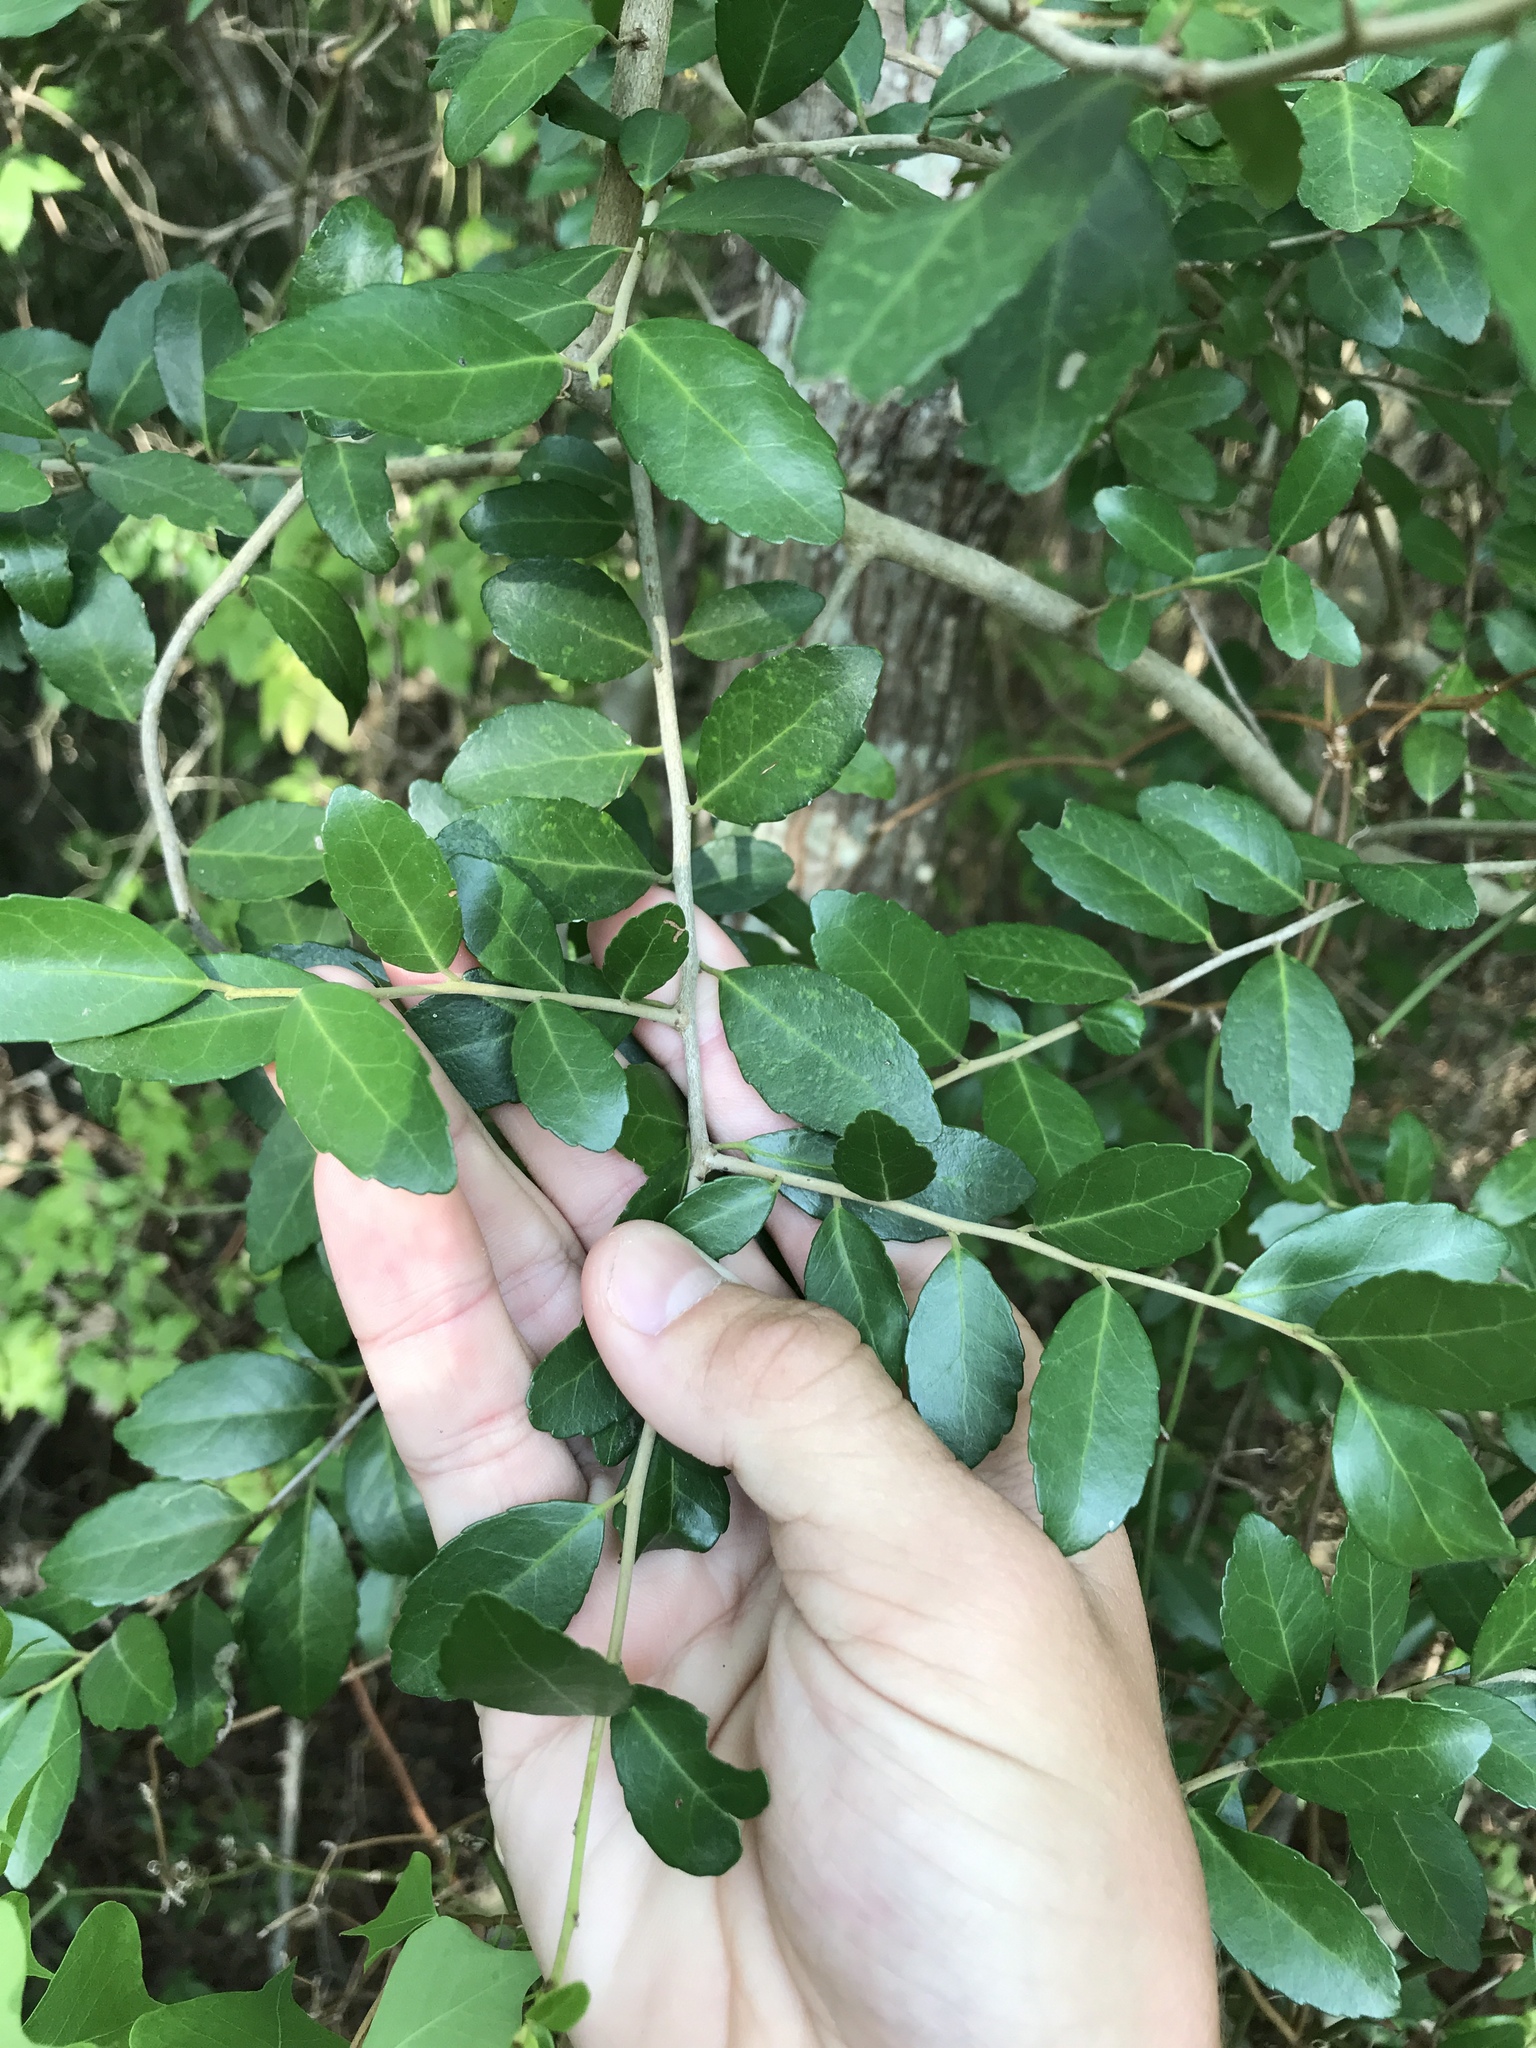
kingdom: Plantae
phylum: Tracheophyta
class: Magnoliopsida
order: Aquifoliales
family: Aquifoliaceae
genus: Ilex
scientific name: Ilex vomitoria
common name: Yaupon holly
